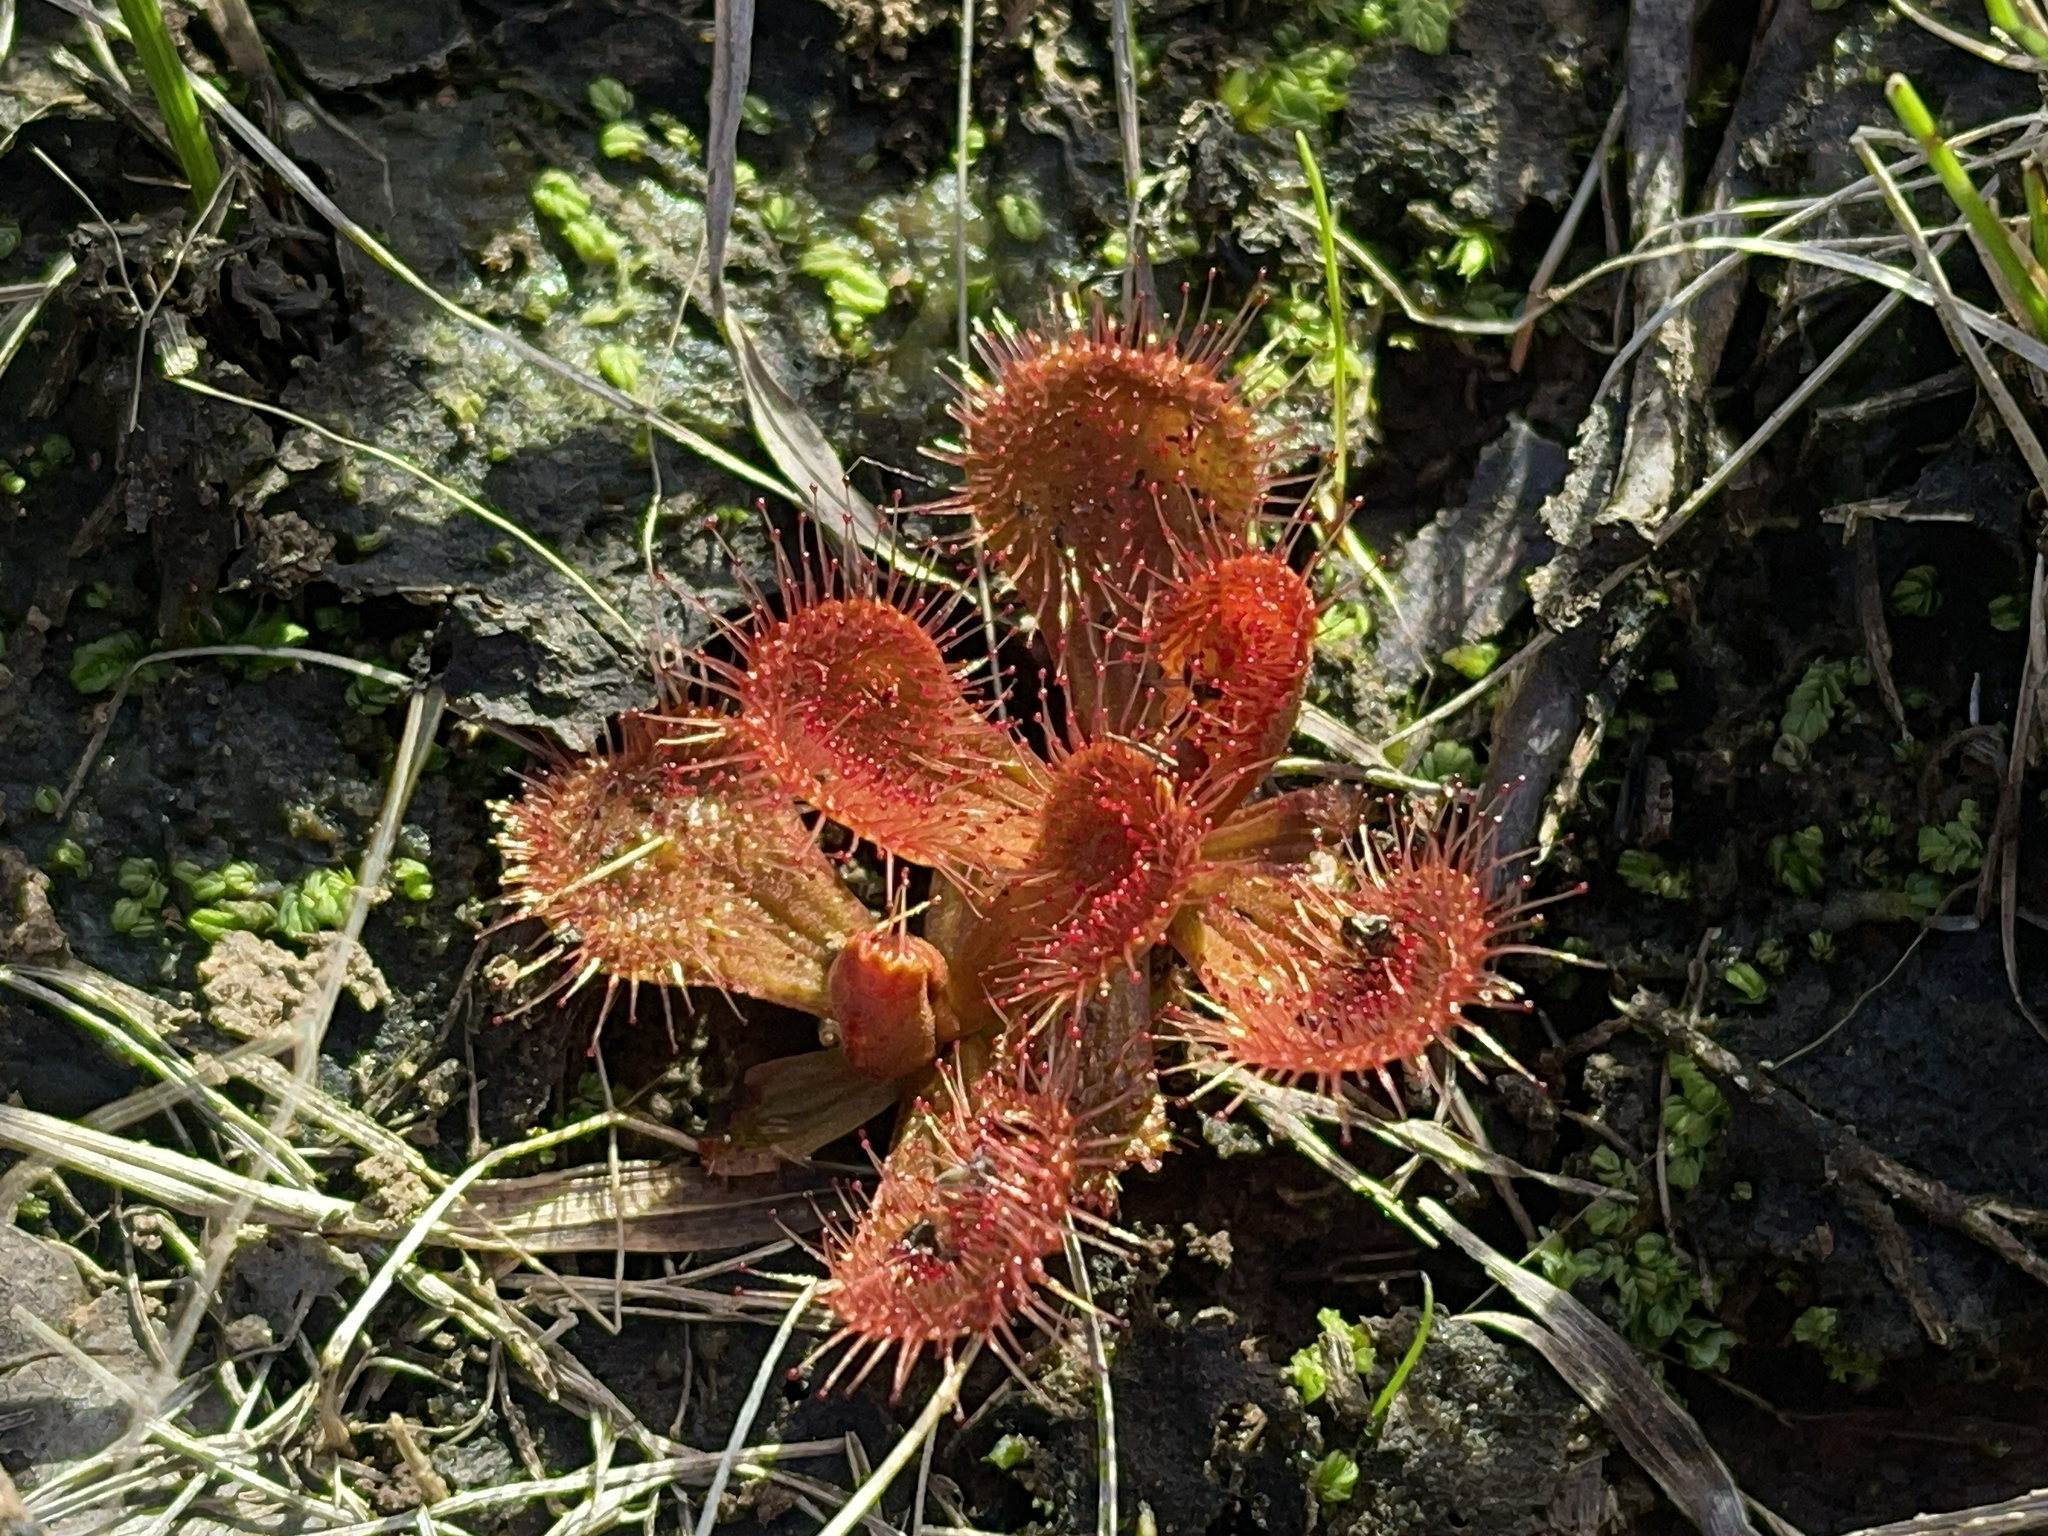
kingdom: Plantae
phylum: Tracheophyta
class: Magnoliopsida
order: Caryophyllales
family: Droseraceae
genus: Drosera
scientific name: Drosera aberrans
